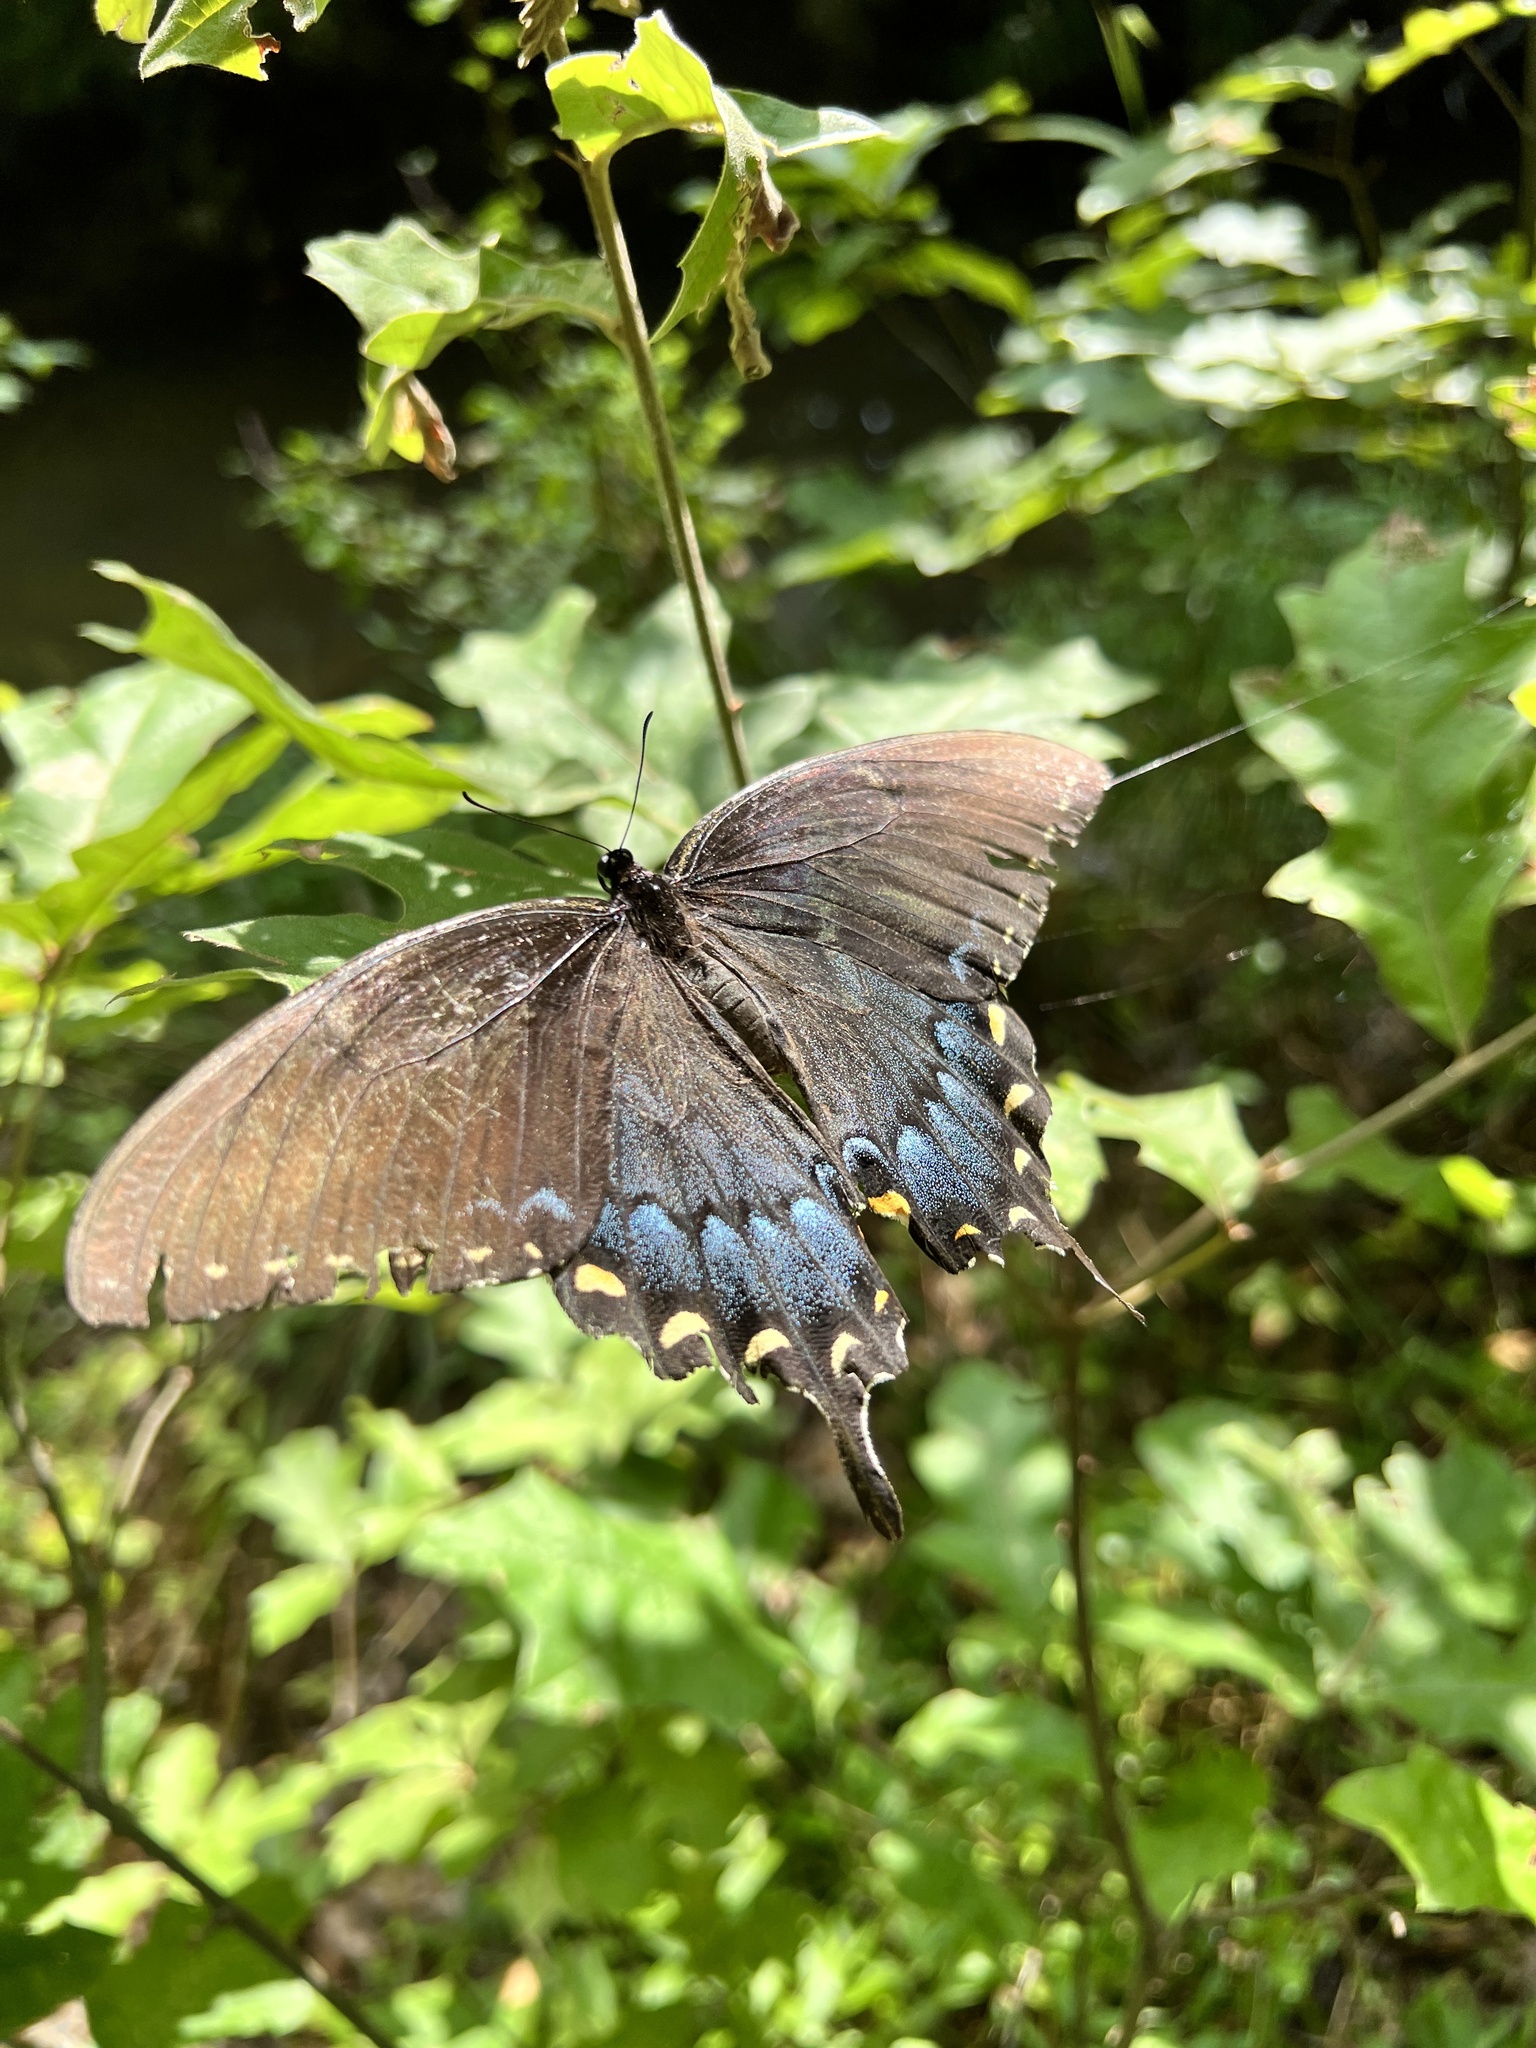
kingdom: Animalia
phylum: Arthropoda
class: Insecta
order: Lepidoptera
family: Papilionidae
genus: Papilio
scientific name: Papilio glaucus
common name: Tiger swallowtail
